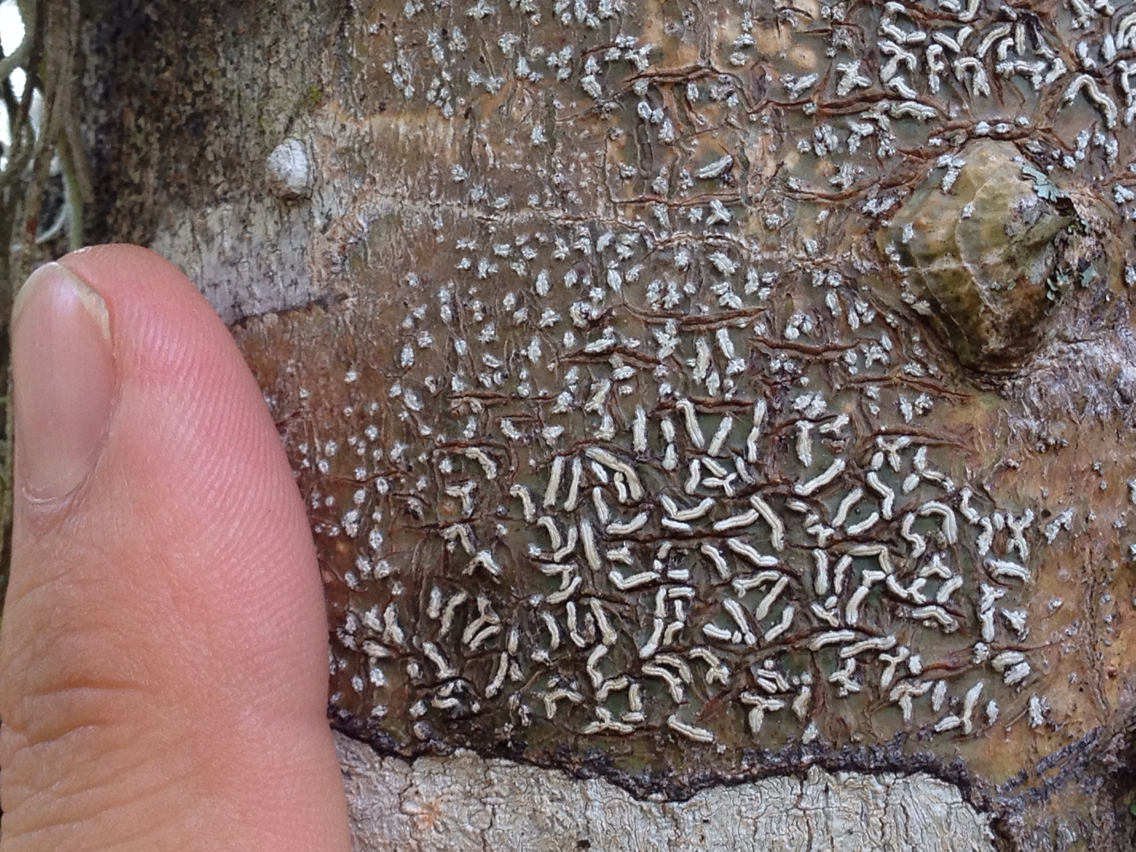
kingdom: Fungi
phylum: Ascomycota
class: Lecanoromycetes
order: Ostropales
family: Graphidaceae
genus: Dyplolabia
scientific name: Dyplolabia afzelii
